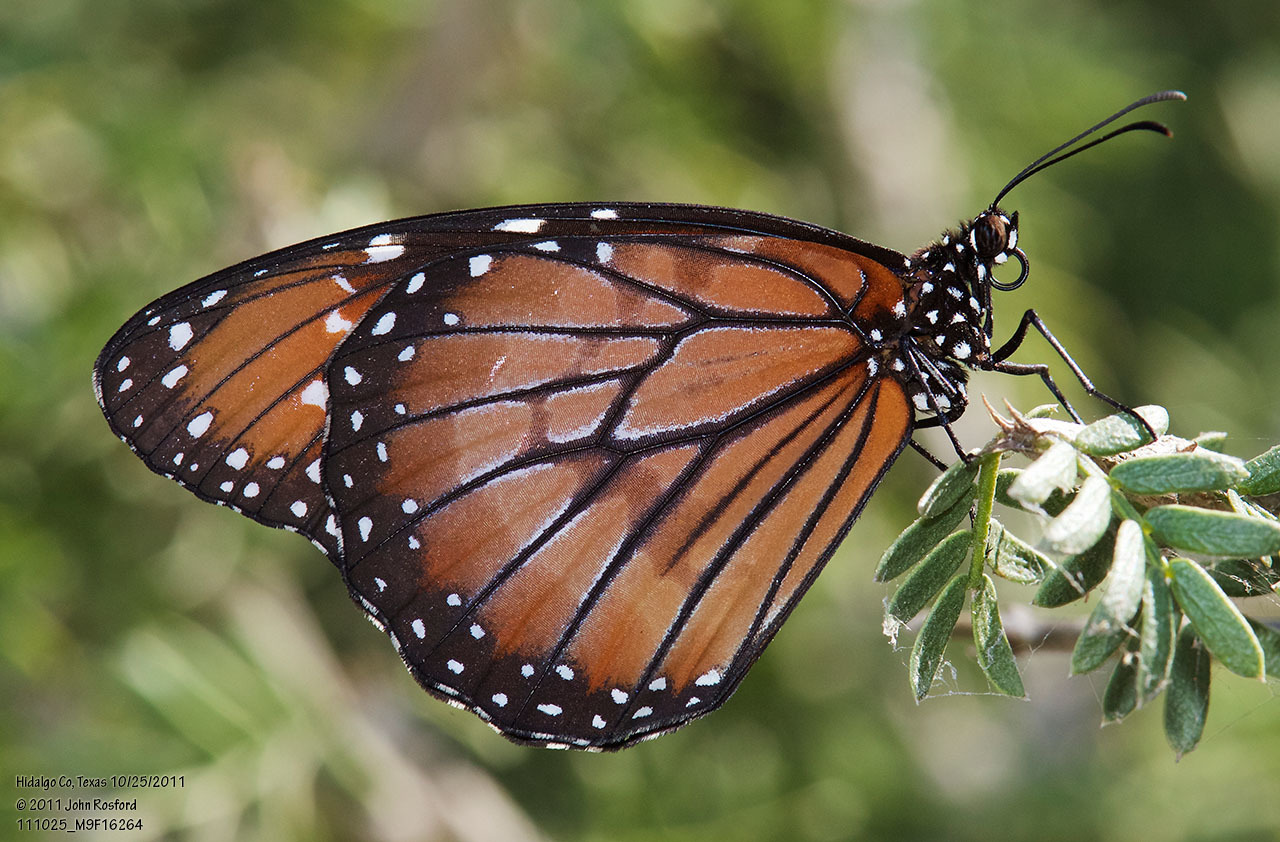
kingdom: Animalia
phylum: Arthropoda
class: Insecta
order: Lepidoptera
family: Nymphalidae
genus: Danaus
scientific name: Danaus eresimus
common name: Soldier
